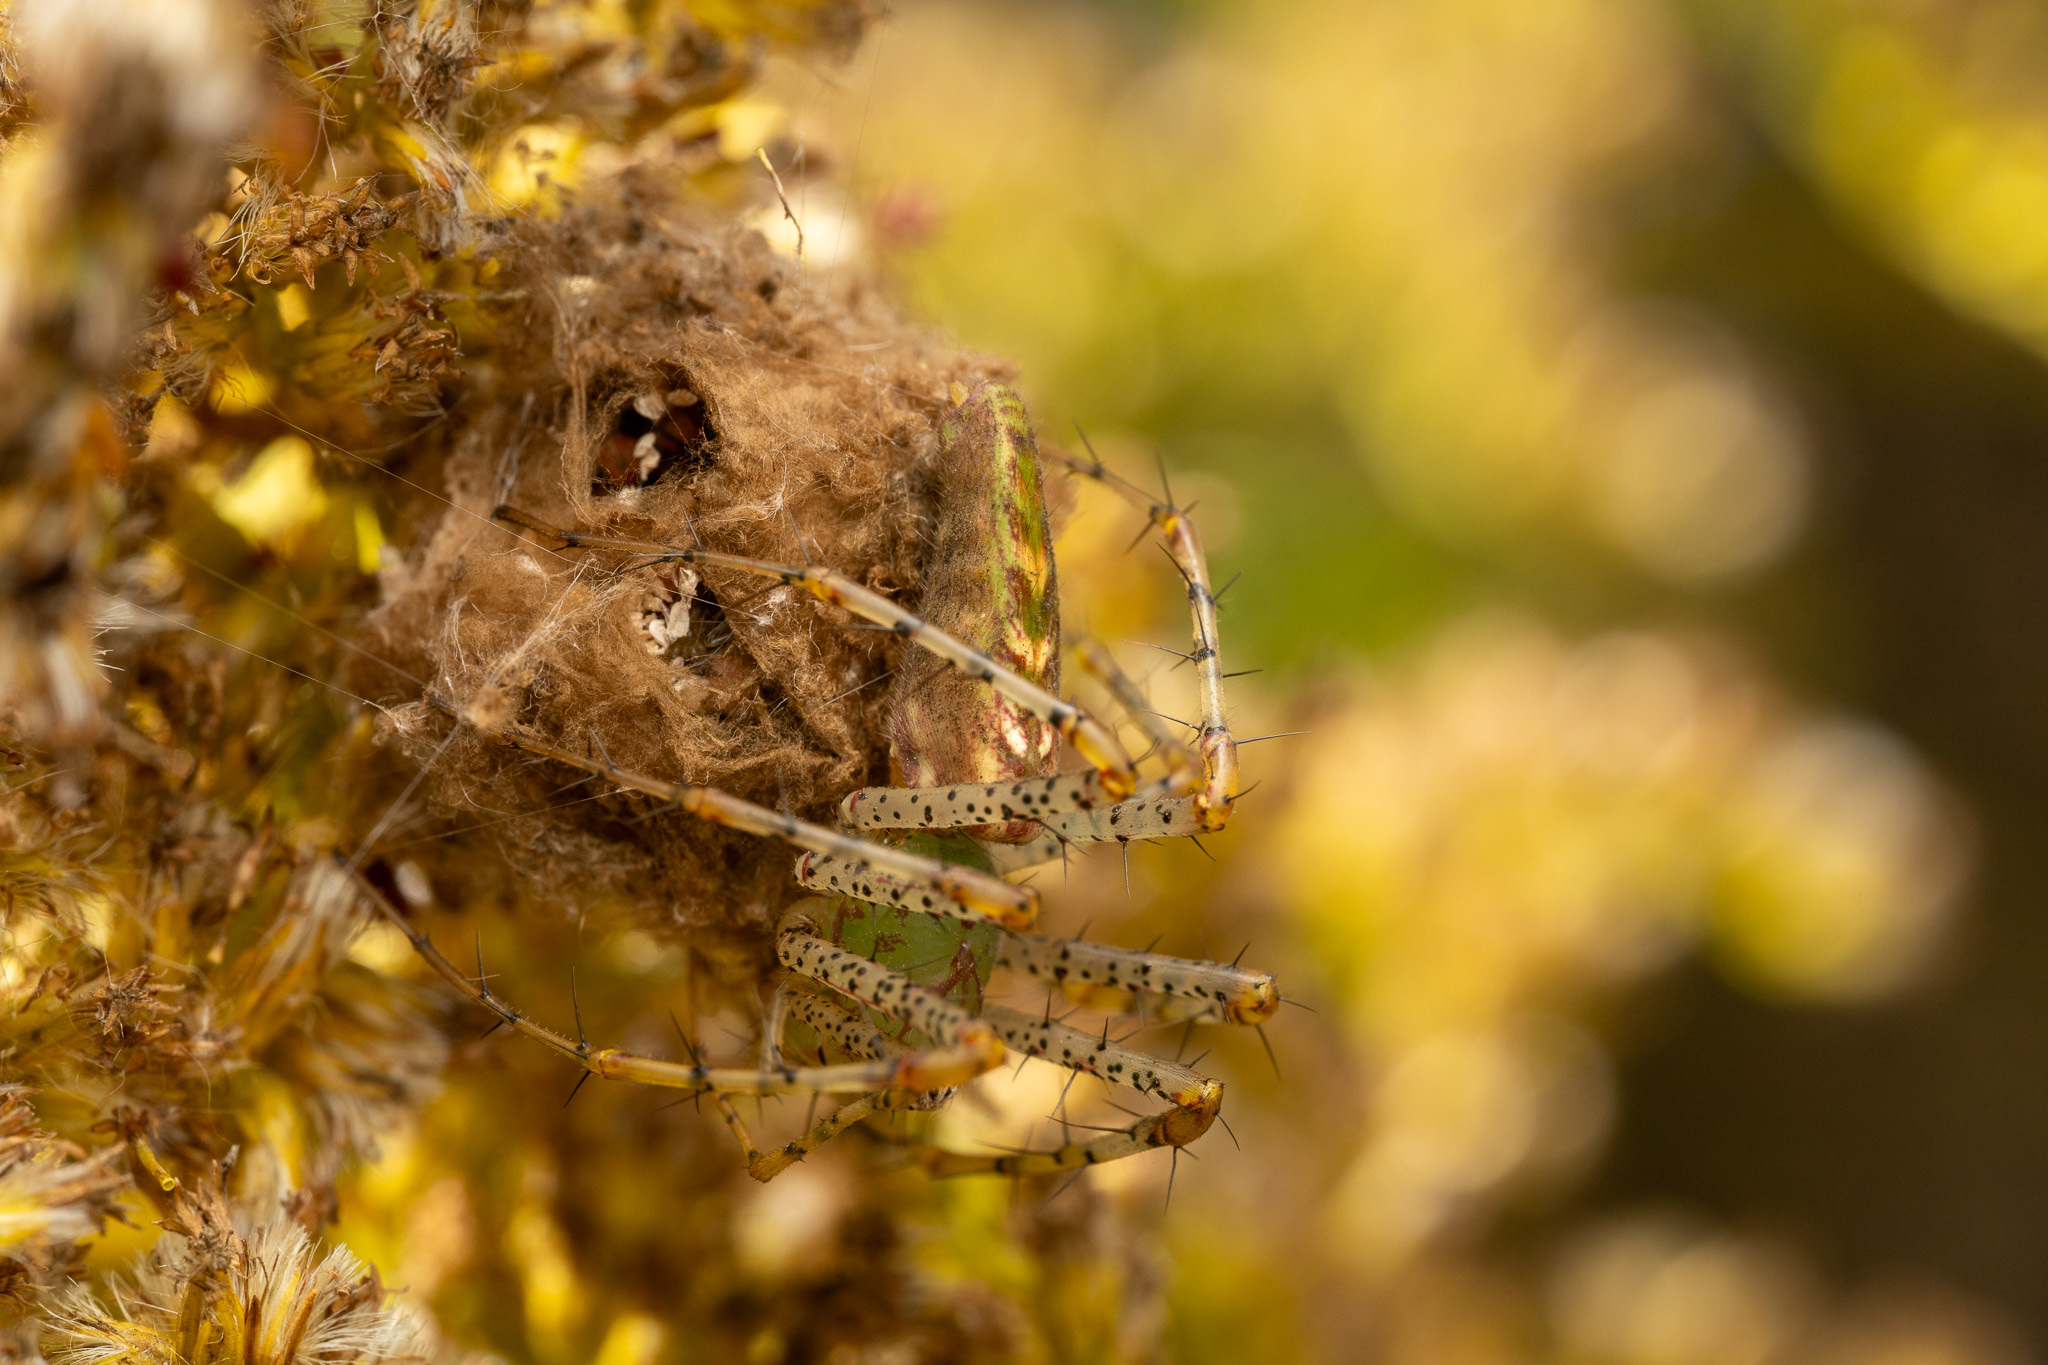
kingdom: Animalia
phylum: Arthropoda
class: Arachnida
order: Araneae
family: Oxyopidae
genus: Peucetia
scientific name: Peucetia viridans
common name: Lynx spiders
